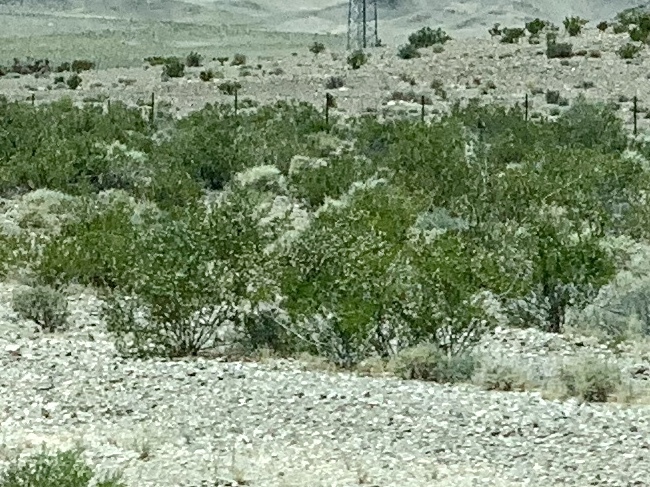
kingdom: Plantae
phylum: Tracheophyta
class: Magnoliopsida
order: Zygophyllales
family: Zygophyllaceae
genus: Larrea
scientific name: Larrea tridentata
